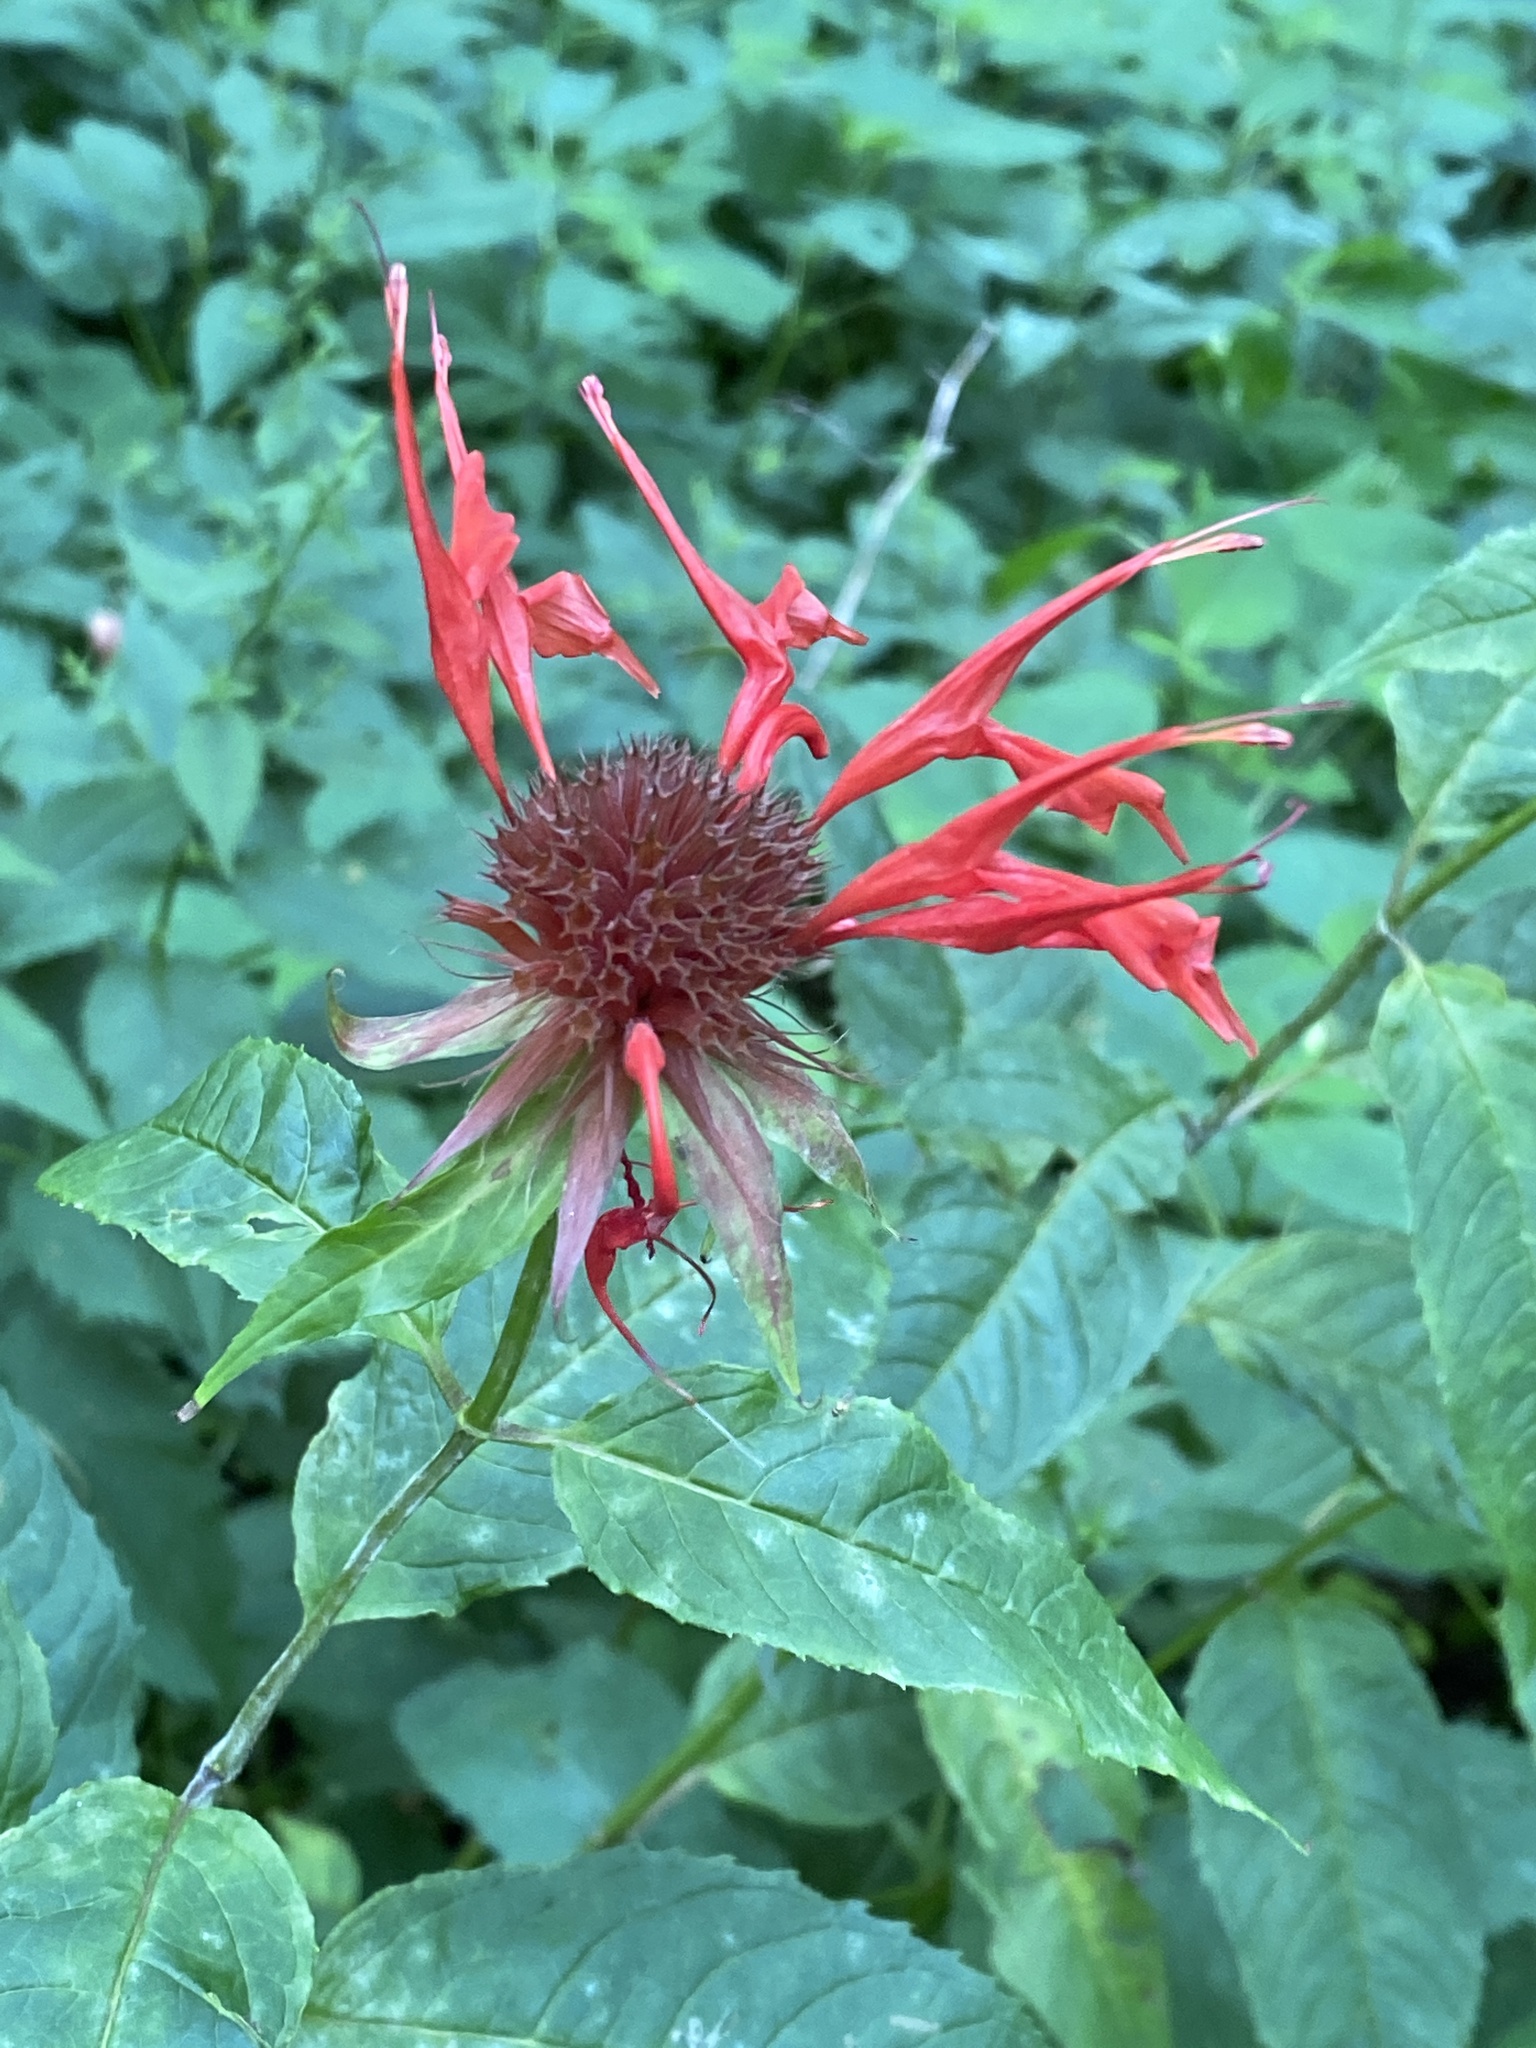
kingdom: Plantae
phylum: Tracheophyta
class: Magnoliopsida
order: Lamiales
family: Lamiaceae
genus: Monarda
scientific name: Monarda didyma
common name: Beebalm
